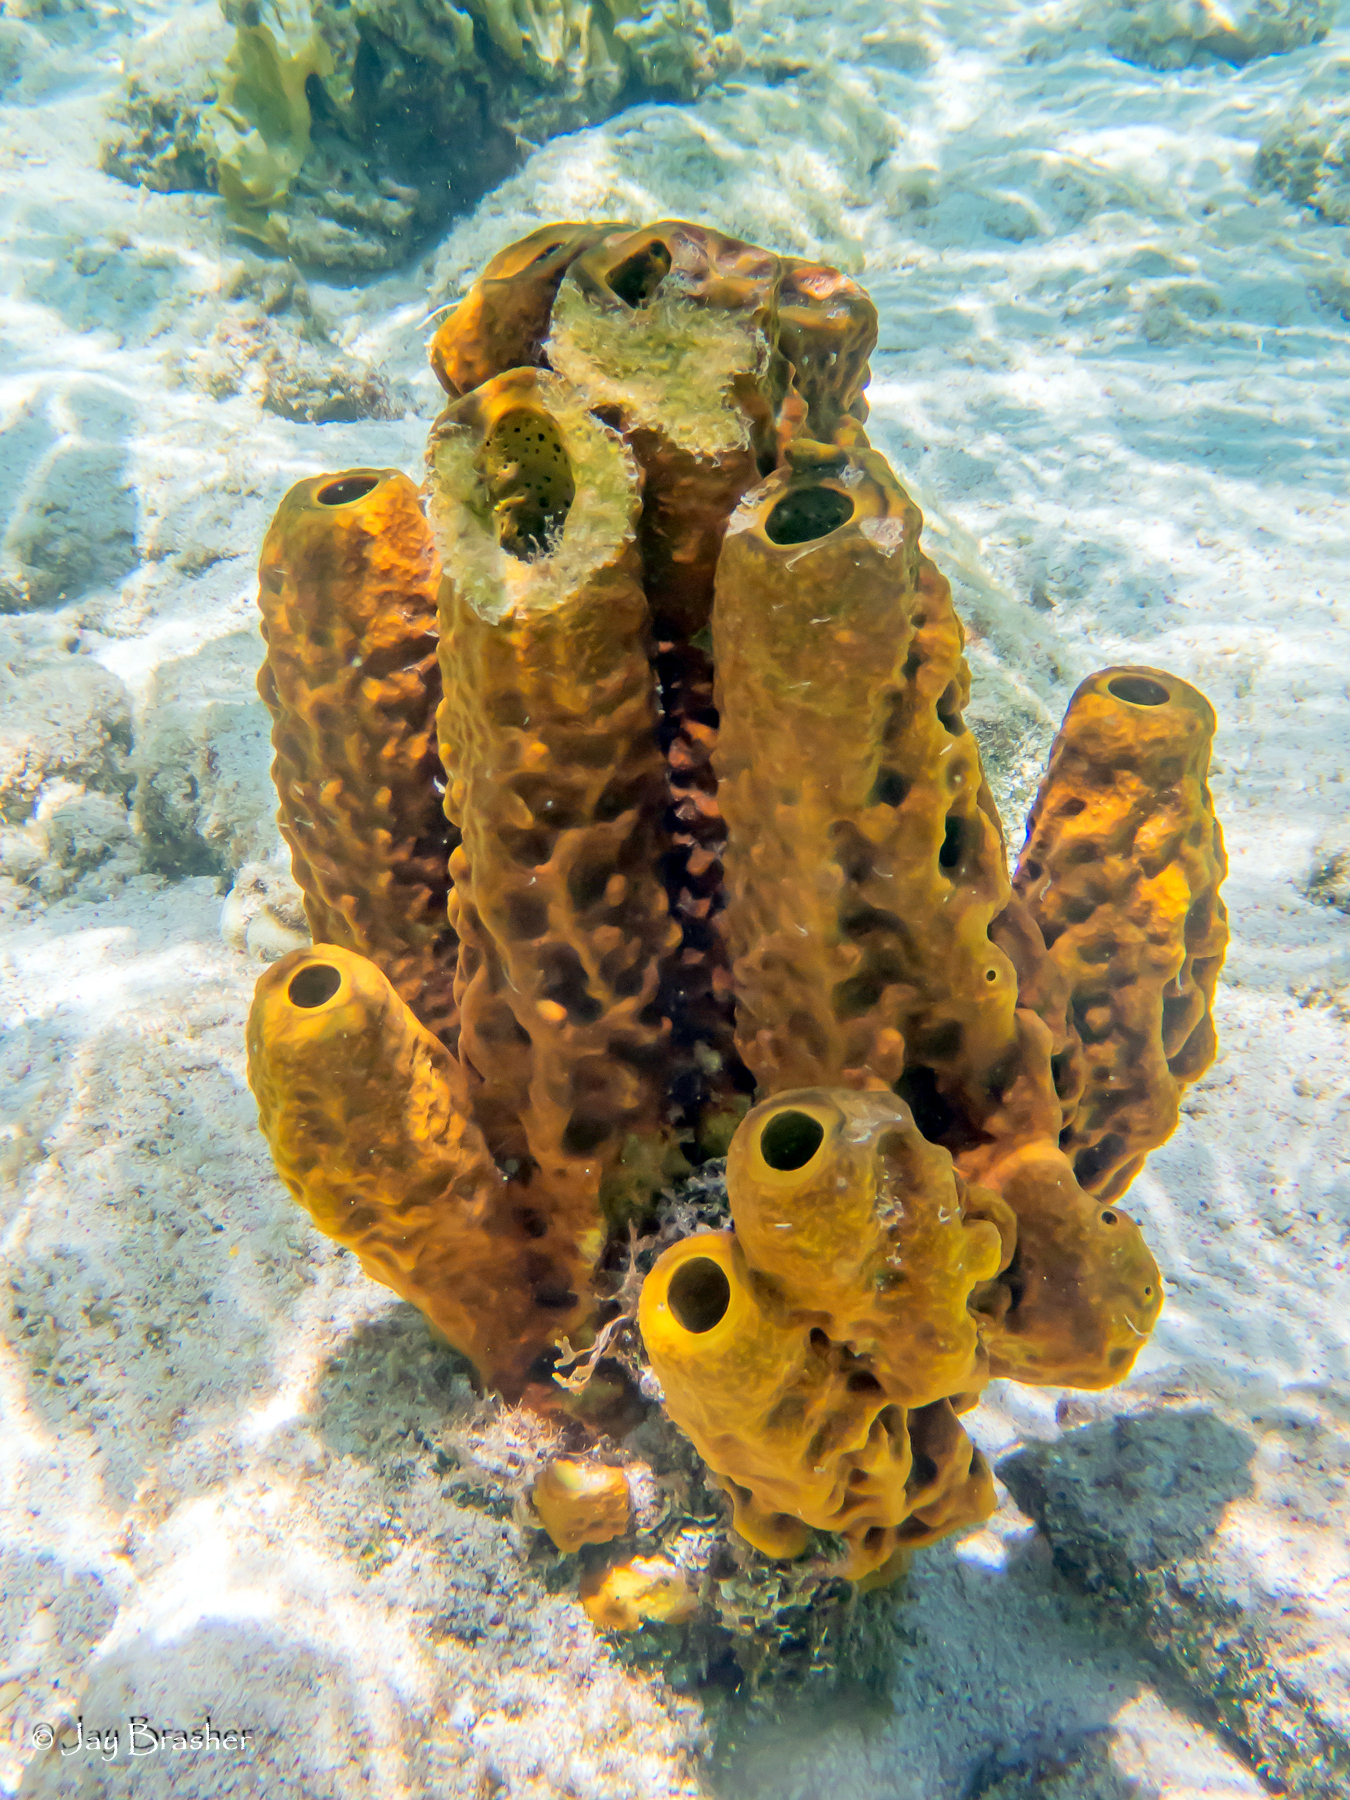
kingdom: Animalia
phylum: Porifera
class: Demospongiae
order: Verongiida
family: Aplysinidae
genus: Aplysina
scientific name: Aplysina fistularis
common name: Candle sponge
